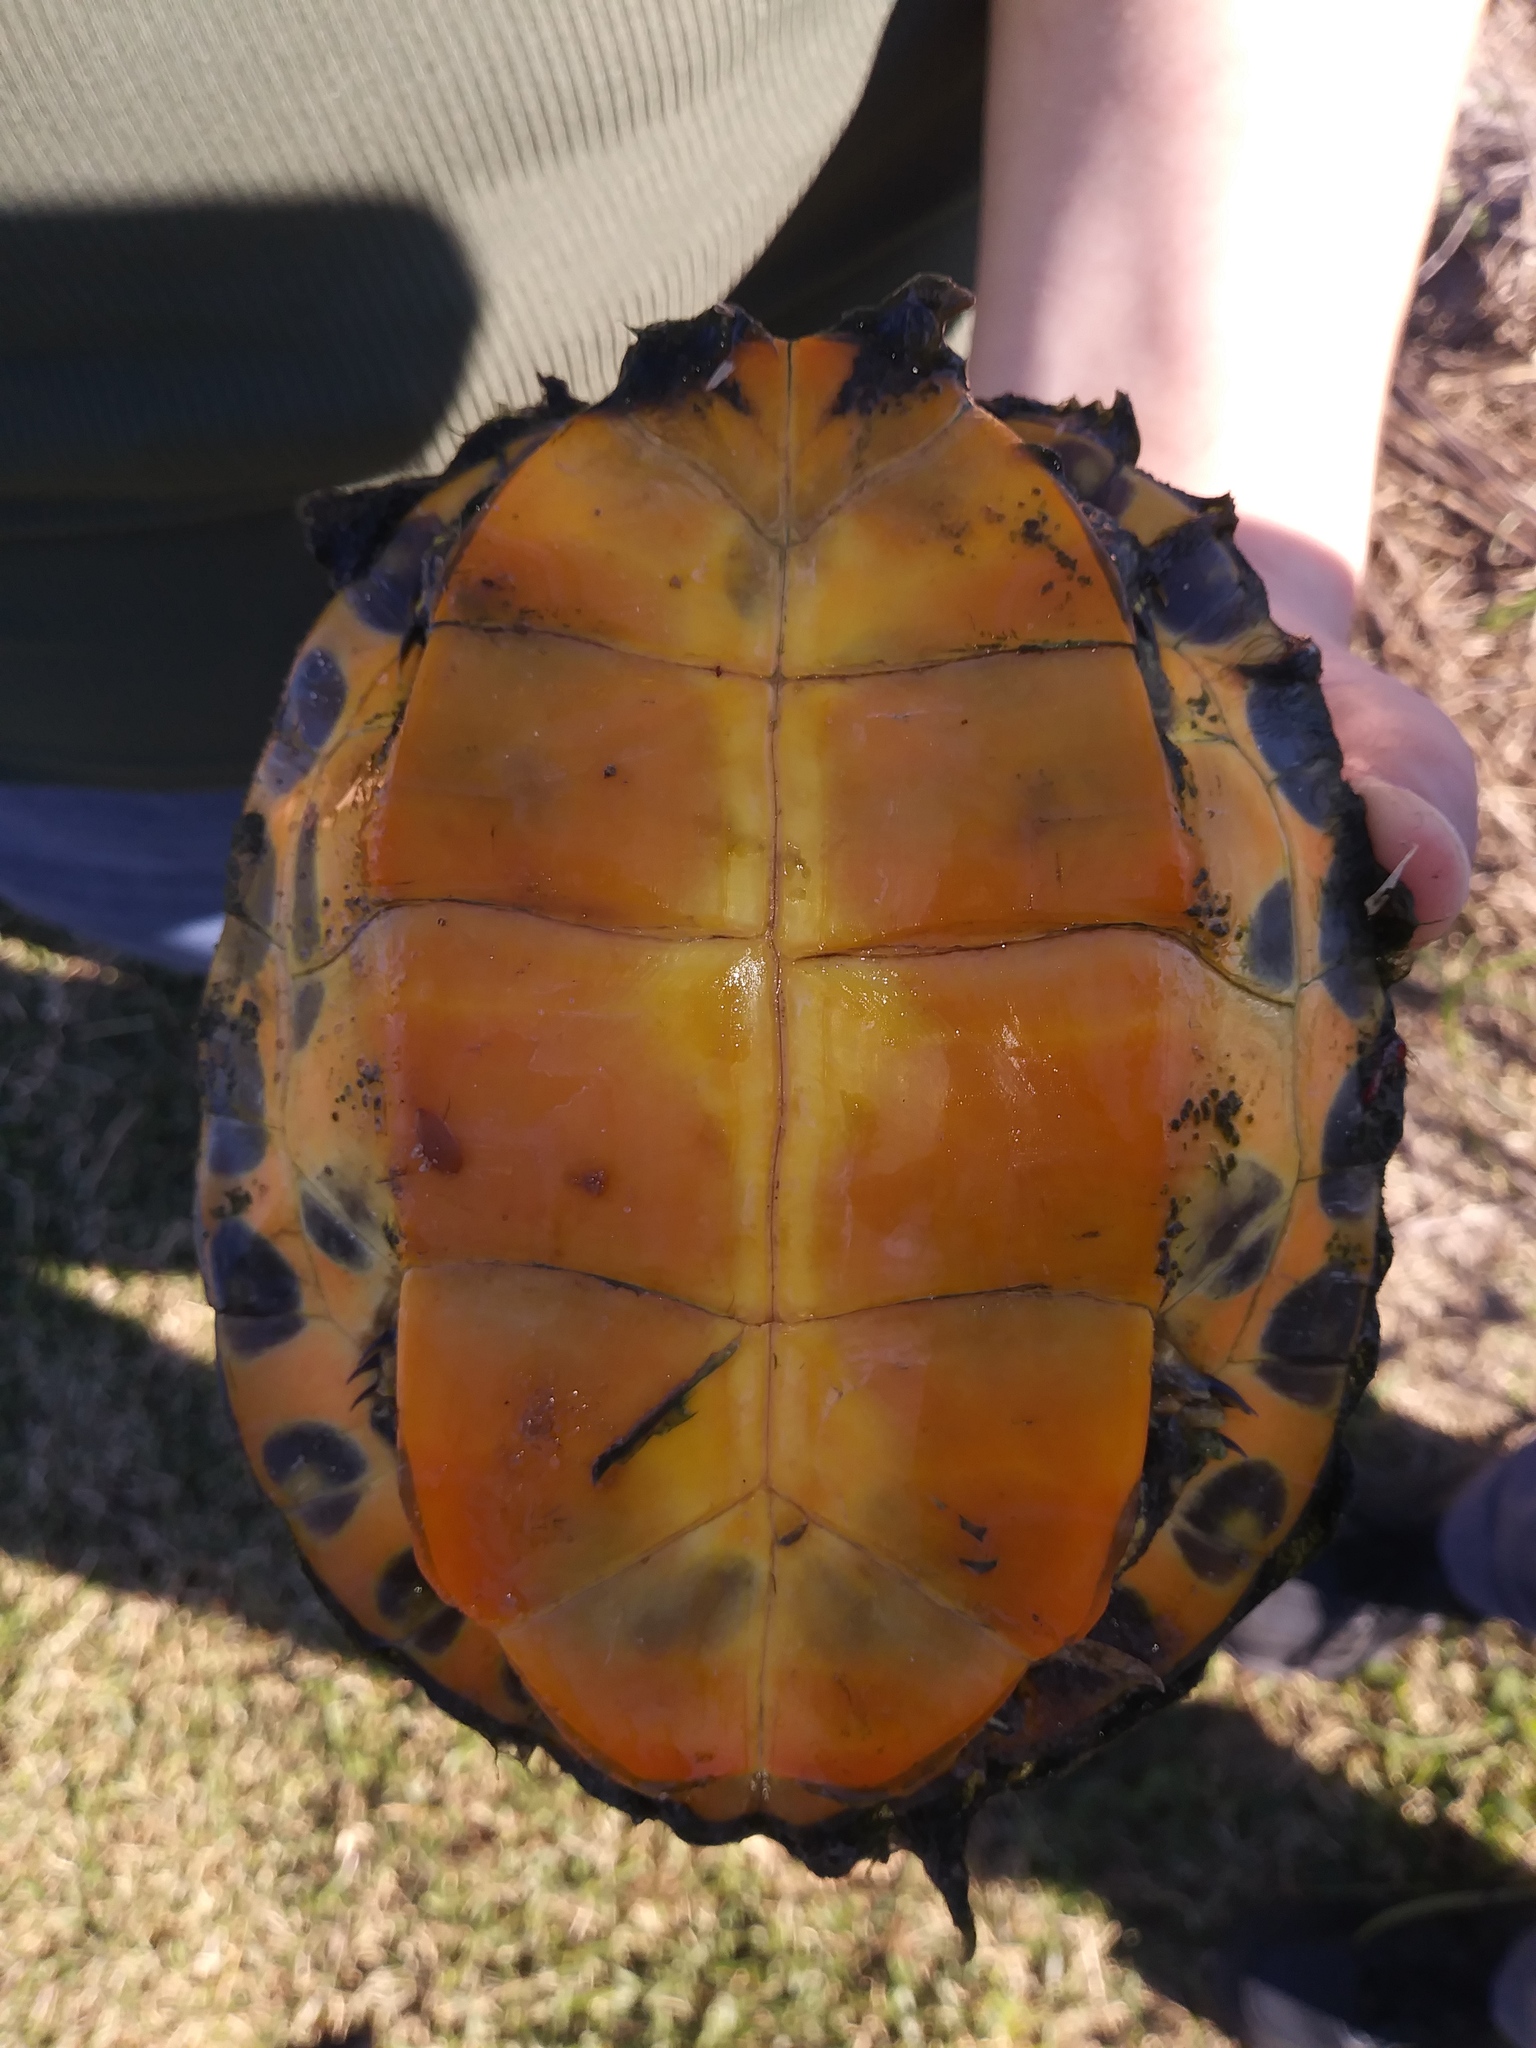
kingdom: Animalia
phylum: Chordata
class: Testudines
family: Emydidae
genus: Pseudemys
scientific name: Pseudemys nelsoni
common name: Florida red-bellied turtle
